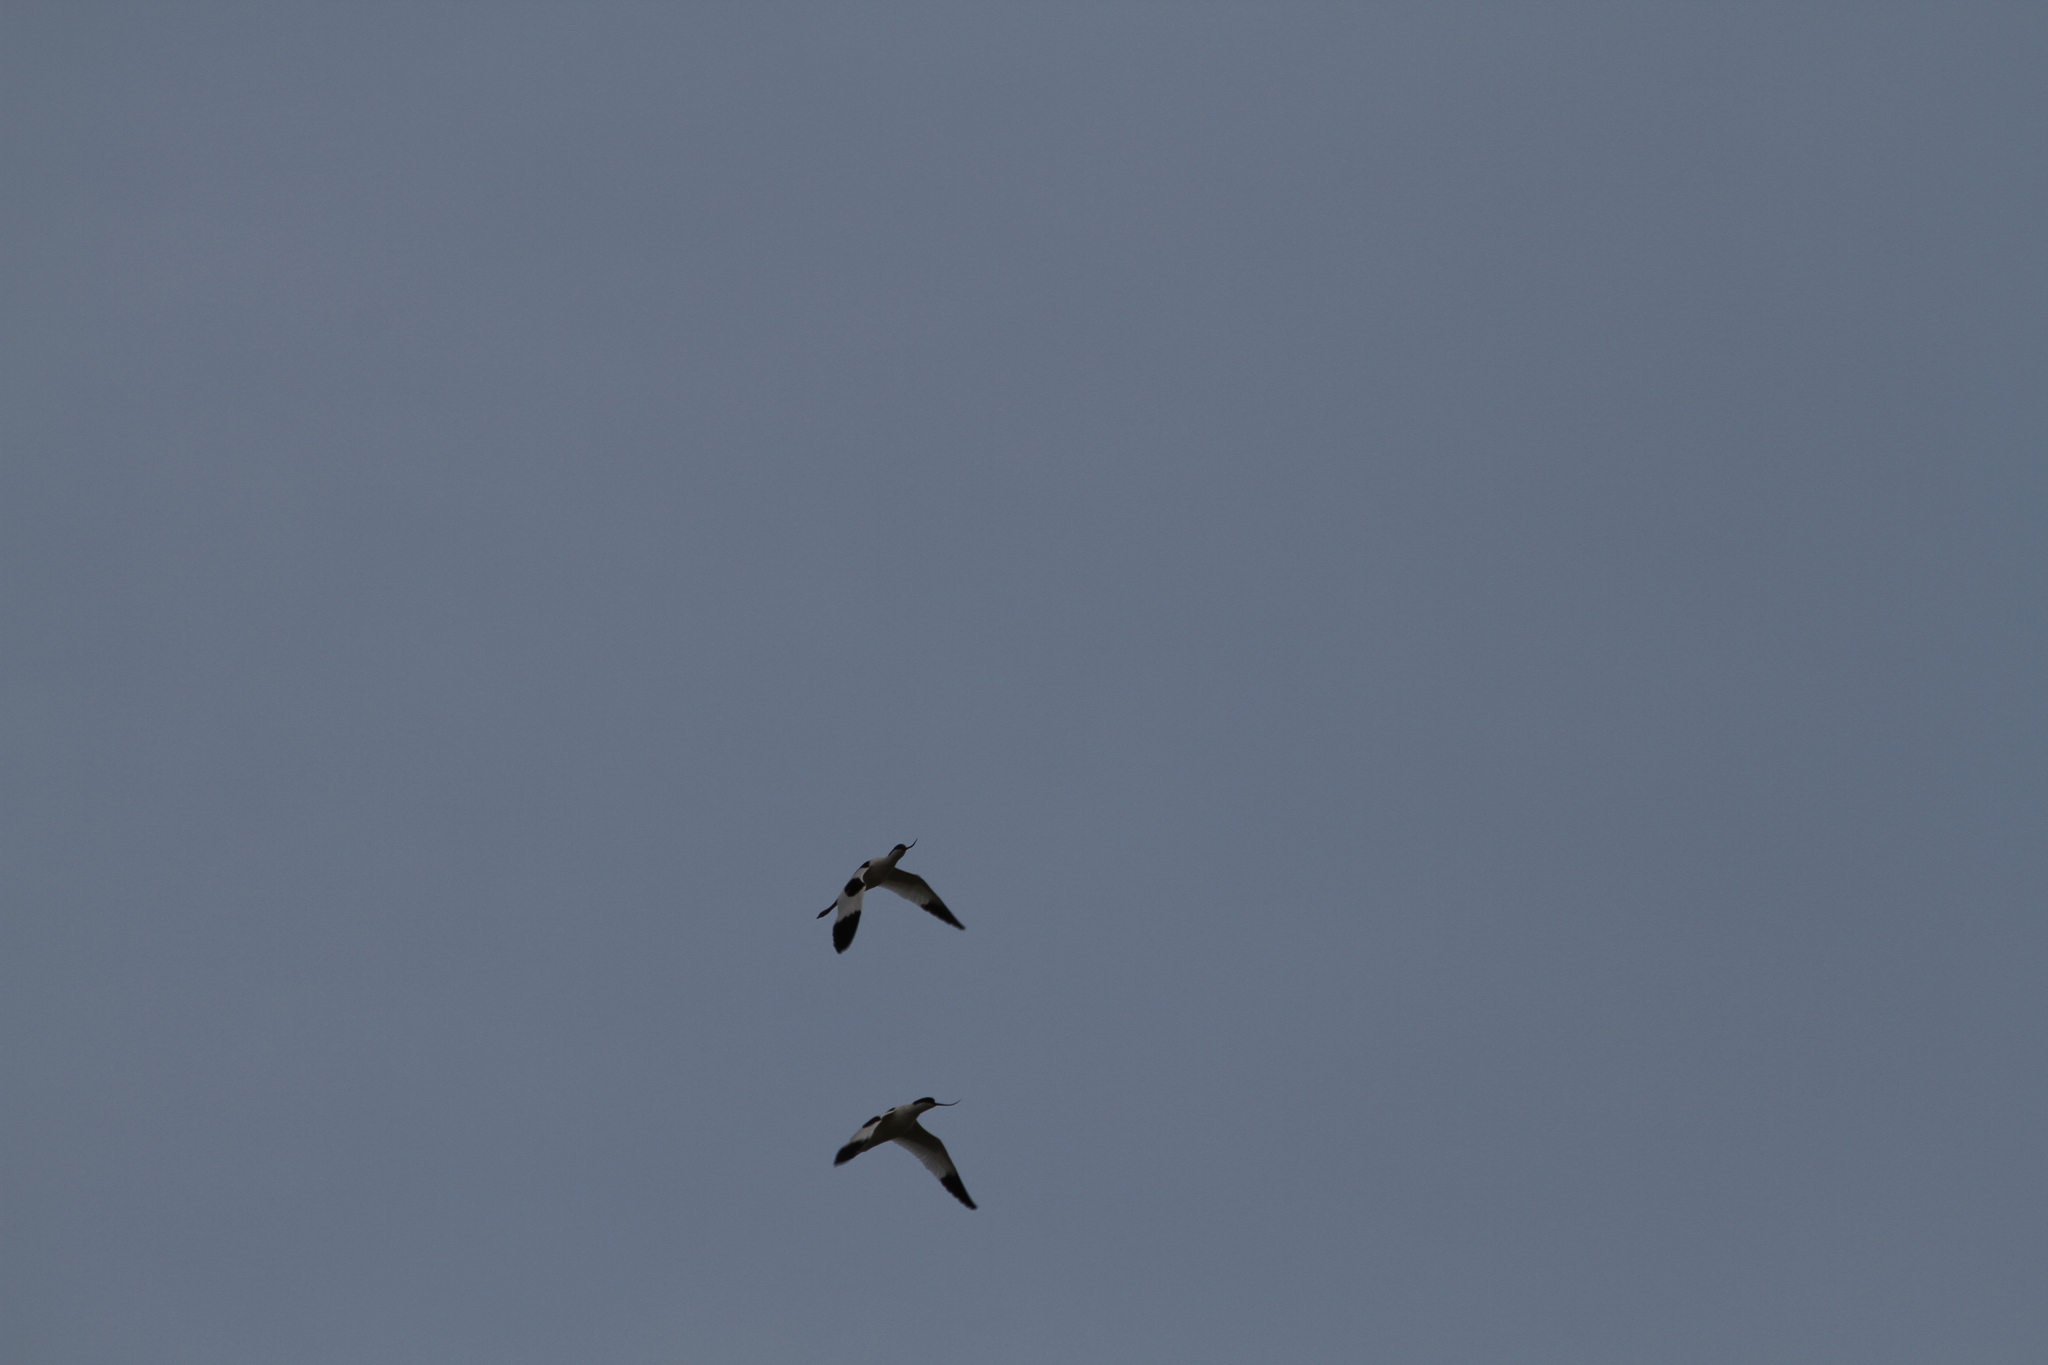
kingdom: Animalia
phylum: Chordata
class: Aves
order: Charadriiformes
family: Recurvirostridae
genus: Recurvirostra
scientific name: Recurvirostra avosetta
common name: Pied avocet
